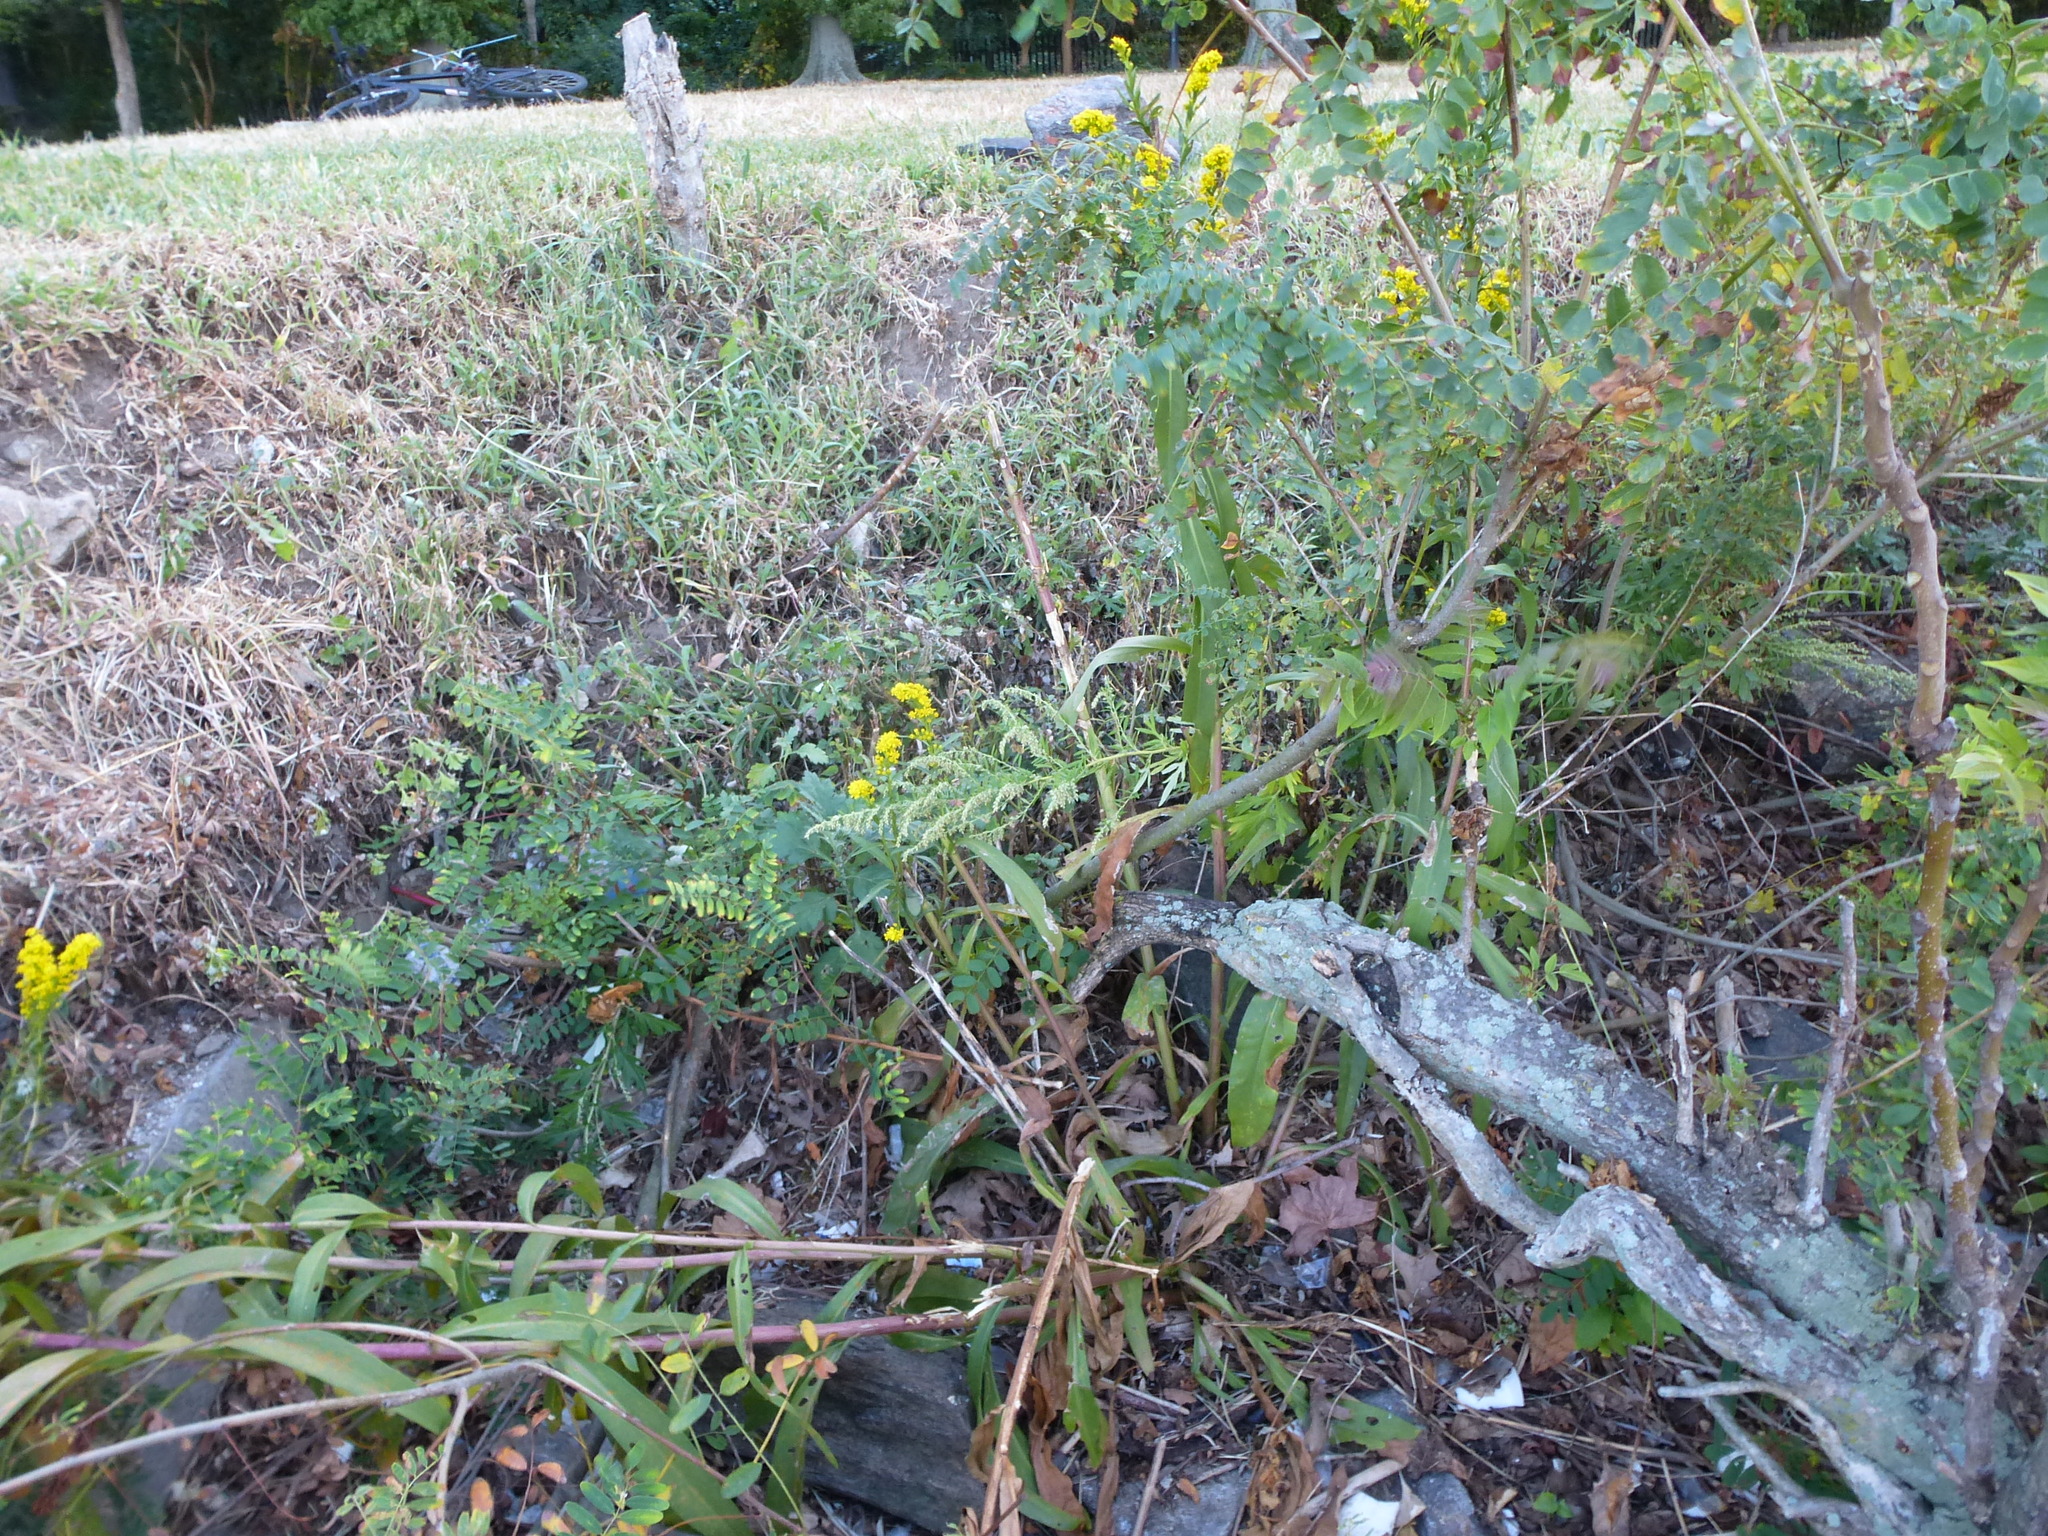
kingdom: Plantae
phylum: Tracheophyta
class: Magnoliopsida
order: Asterales
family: Asteraceae
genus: Solidago
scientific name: Solidago sempervirens
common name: Salt-marsh goldenrod
